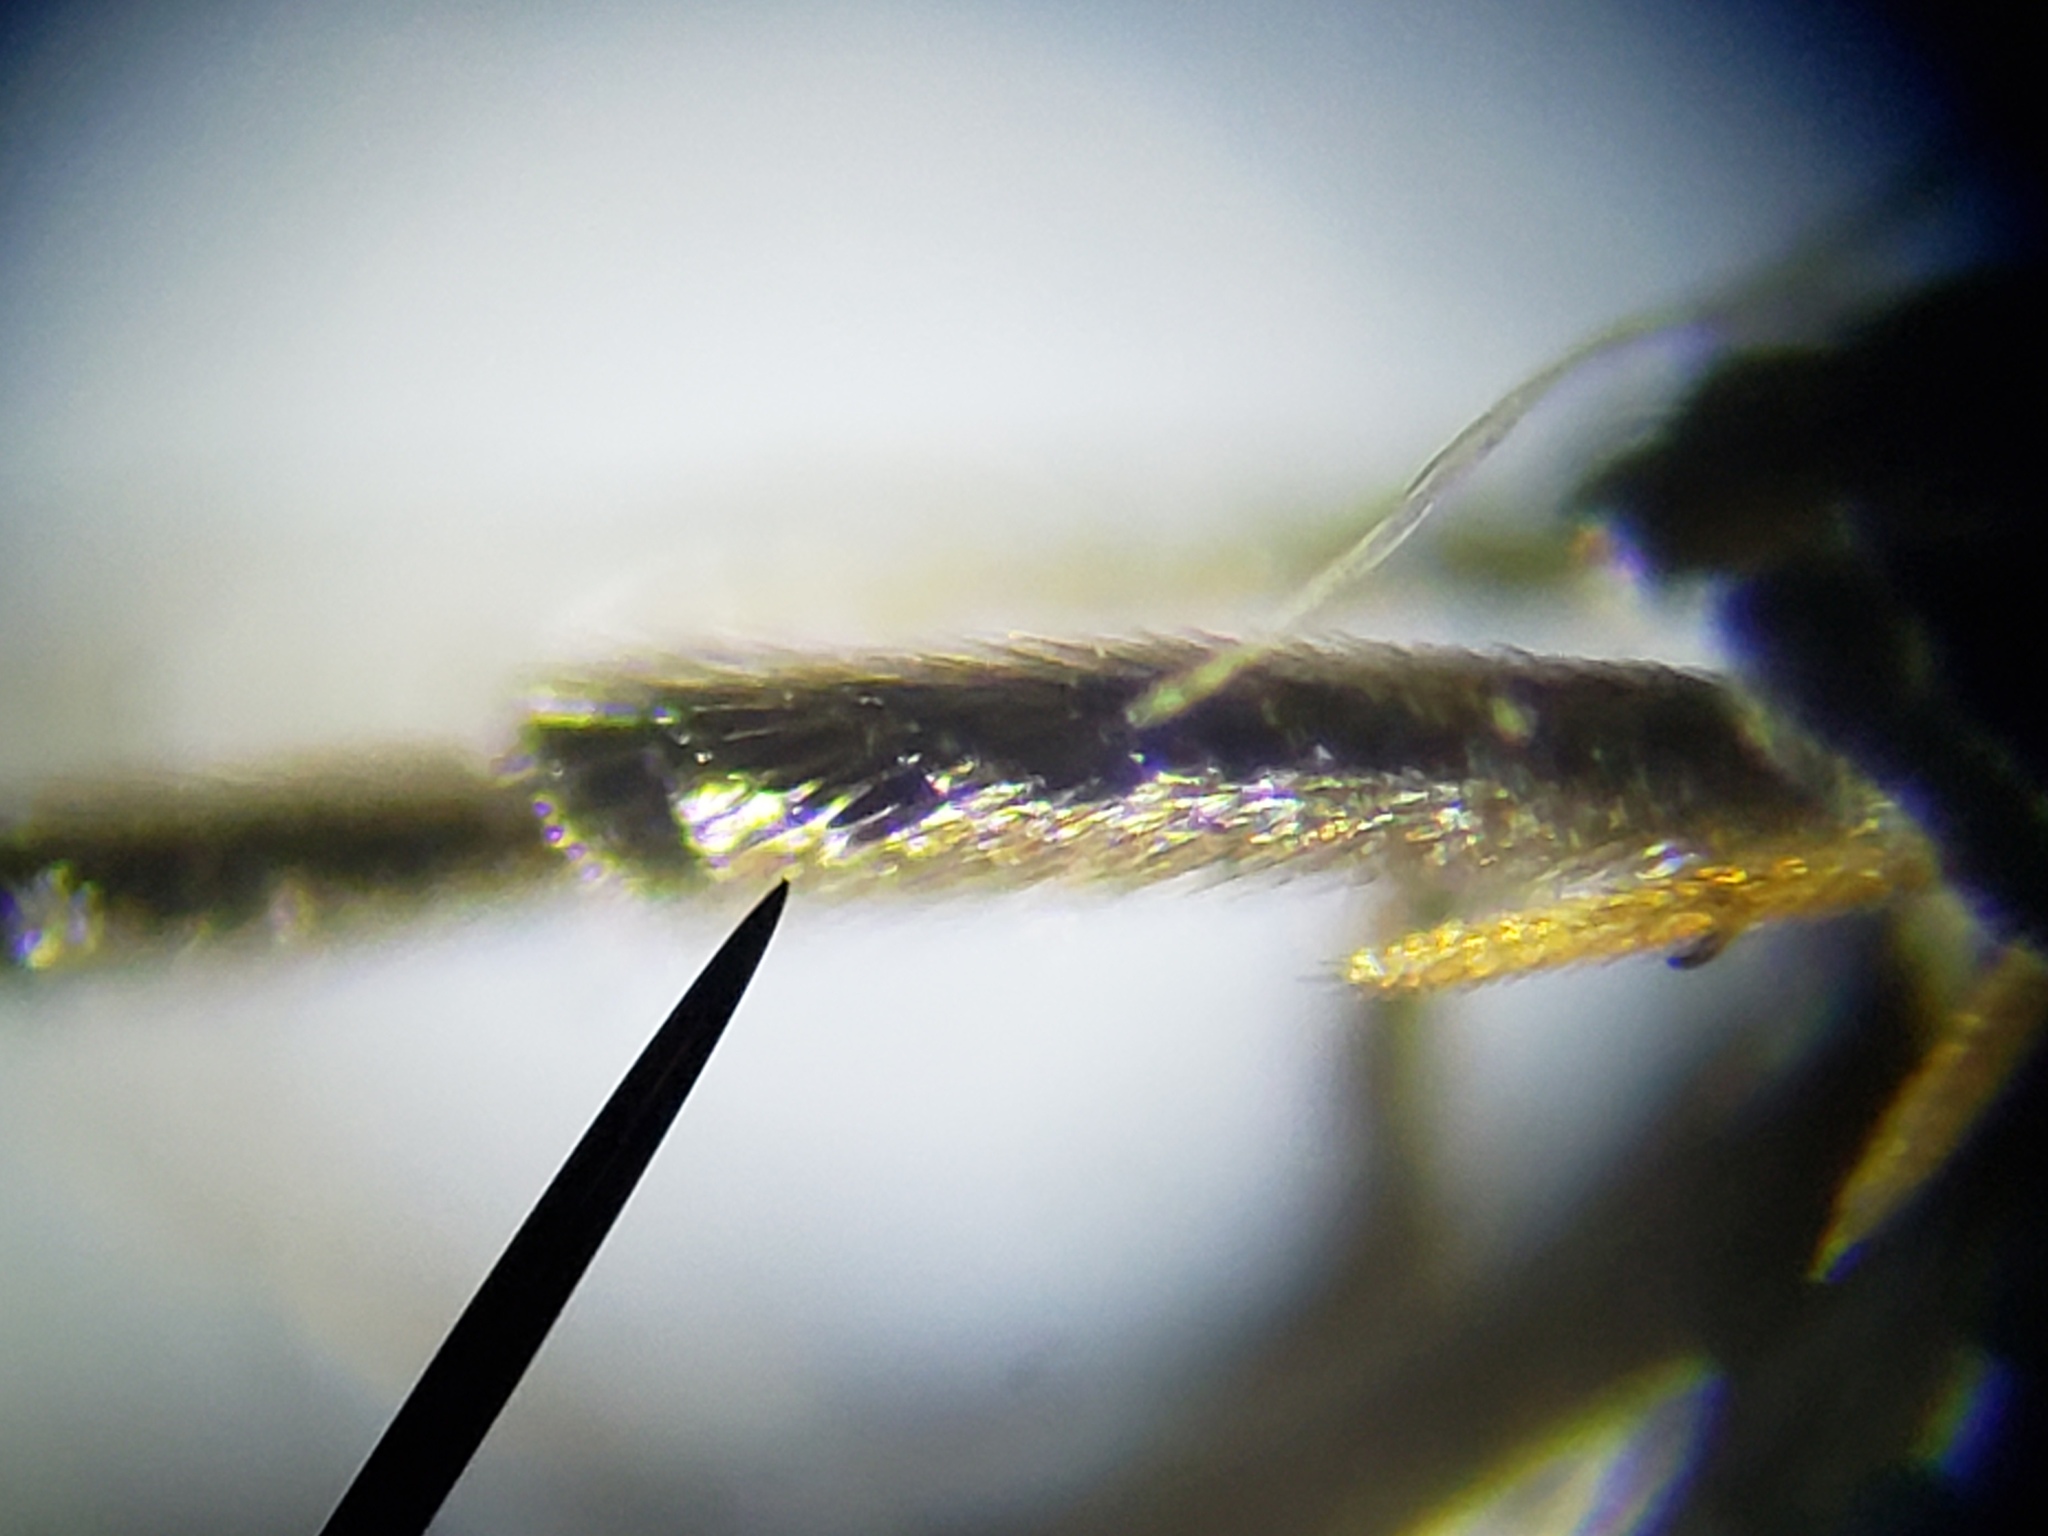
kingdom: Animalia
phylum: Arthropoda
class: Insecta
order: Coleoptera
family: Mordellidae
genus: Mordellina
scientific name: Mordellina pustulata
